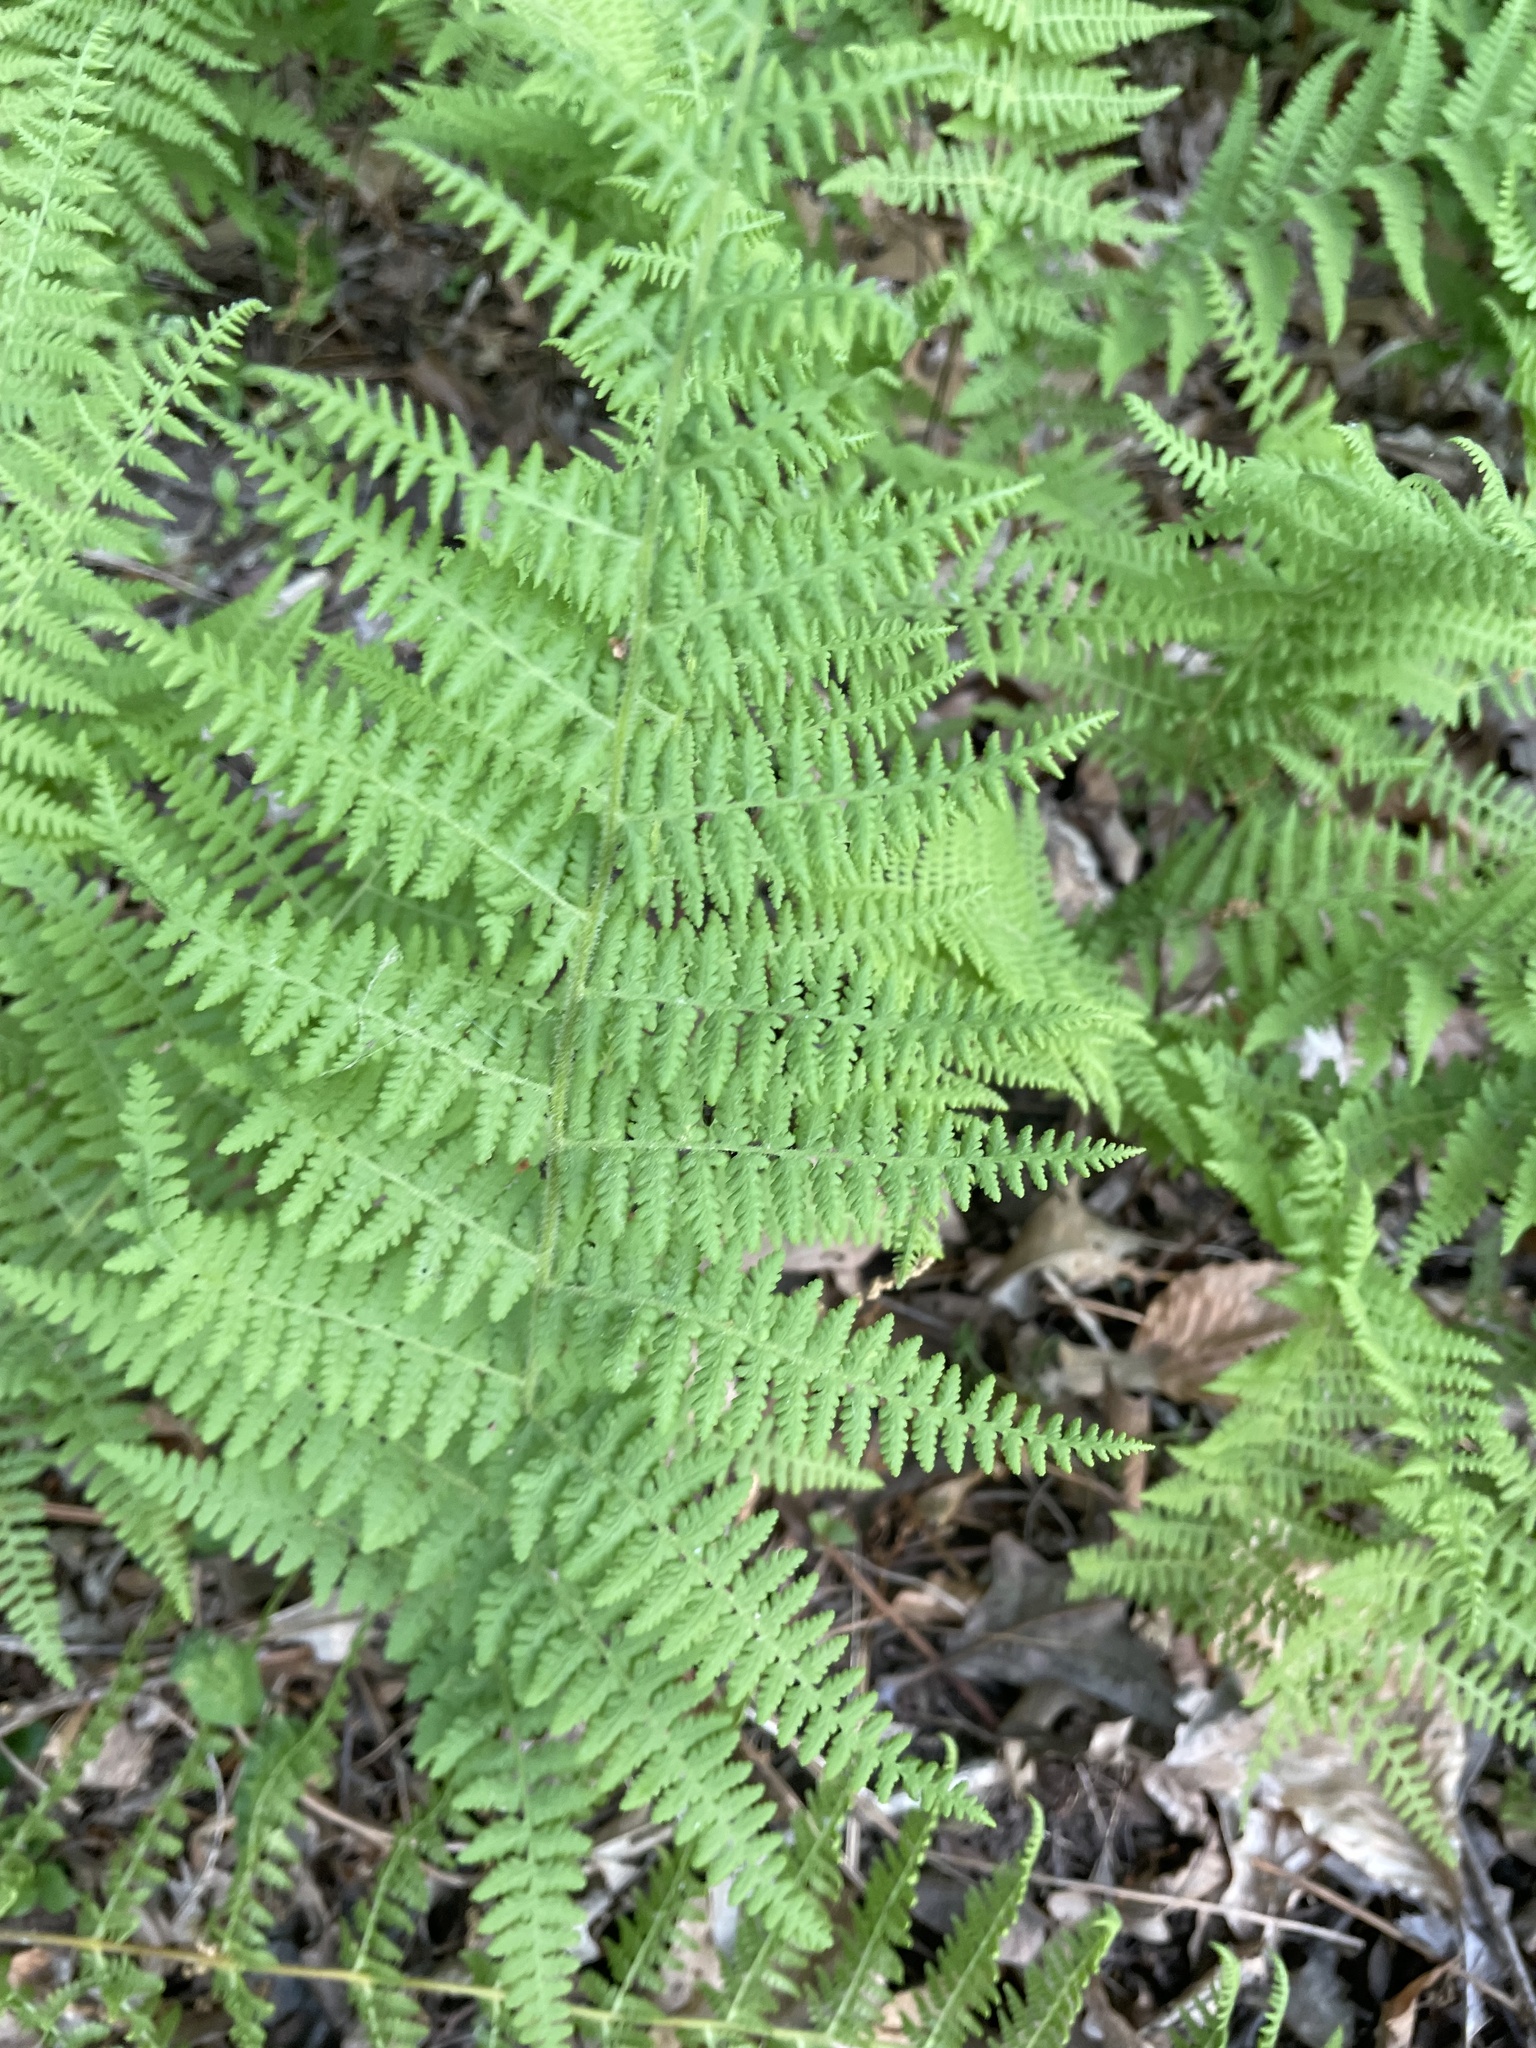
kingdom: Plantae
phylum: Tracheophyta
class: Polypodiopsida
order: Polypodiales
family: Dennstaedtiaceae
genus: Sitobolium
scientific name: Sitobolium punctilobum
